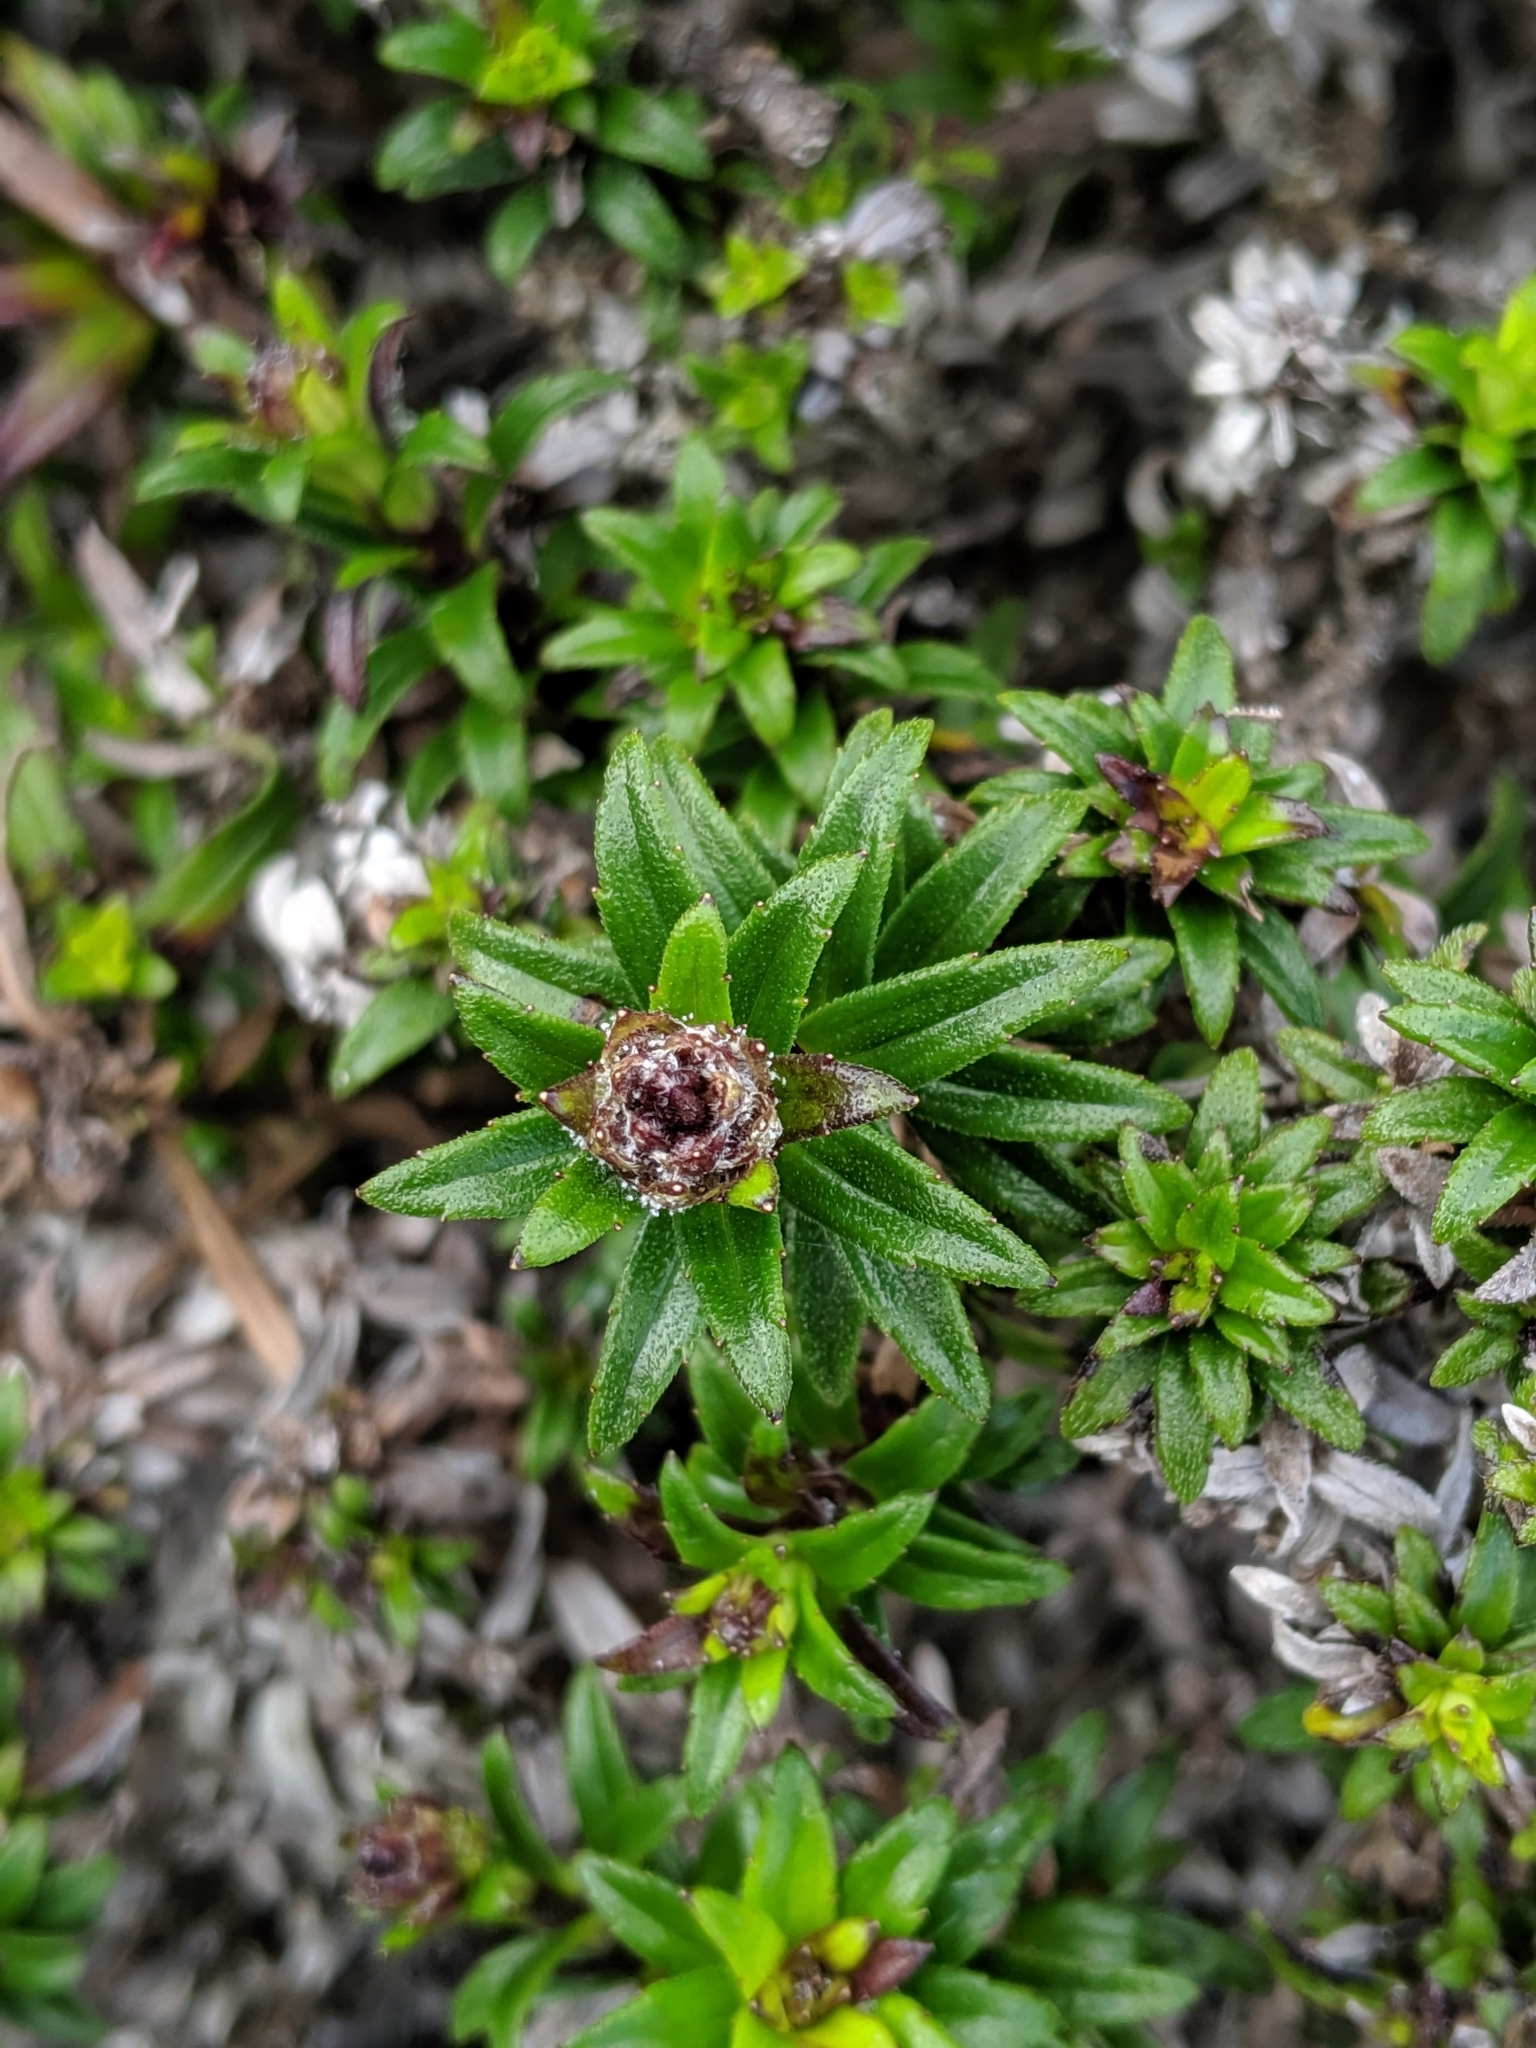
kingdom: Plantae
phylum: Tracheophyta
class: Magnoliopsida
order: Asterales
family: Asteraceae
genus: Dubautia
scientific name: Dubautia scabra
